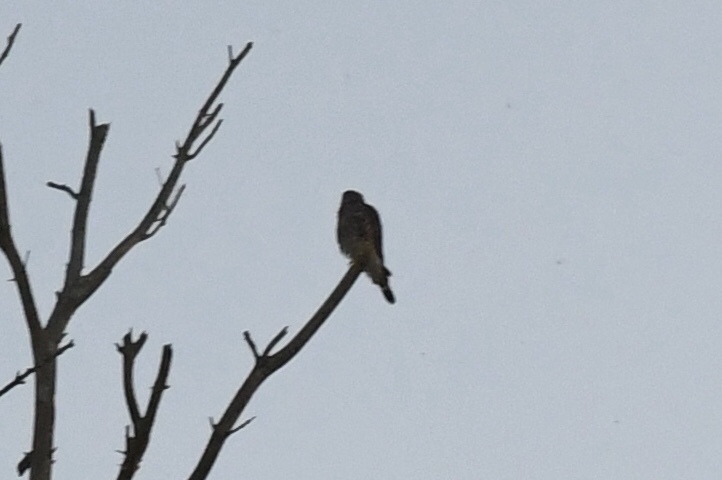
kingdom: Animalia
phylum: Chordata
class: Aves
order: Falconiformes
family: Falconidae
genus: Falco
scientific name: Falco columbarius
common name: Merlin
